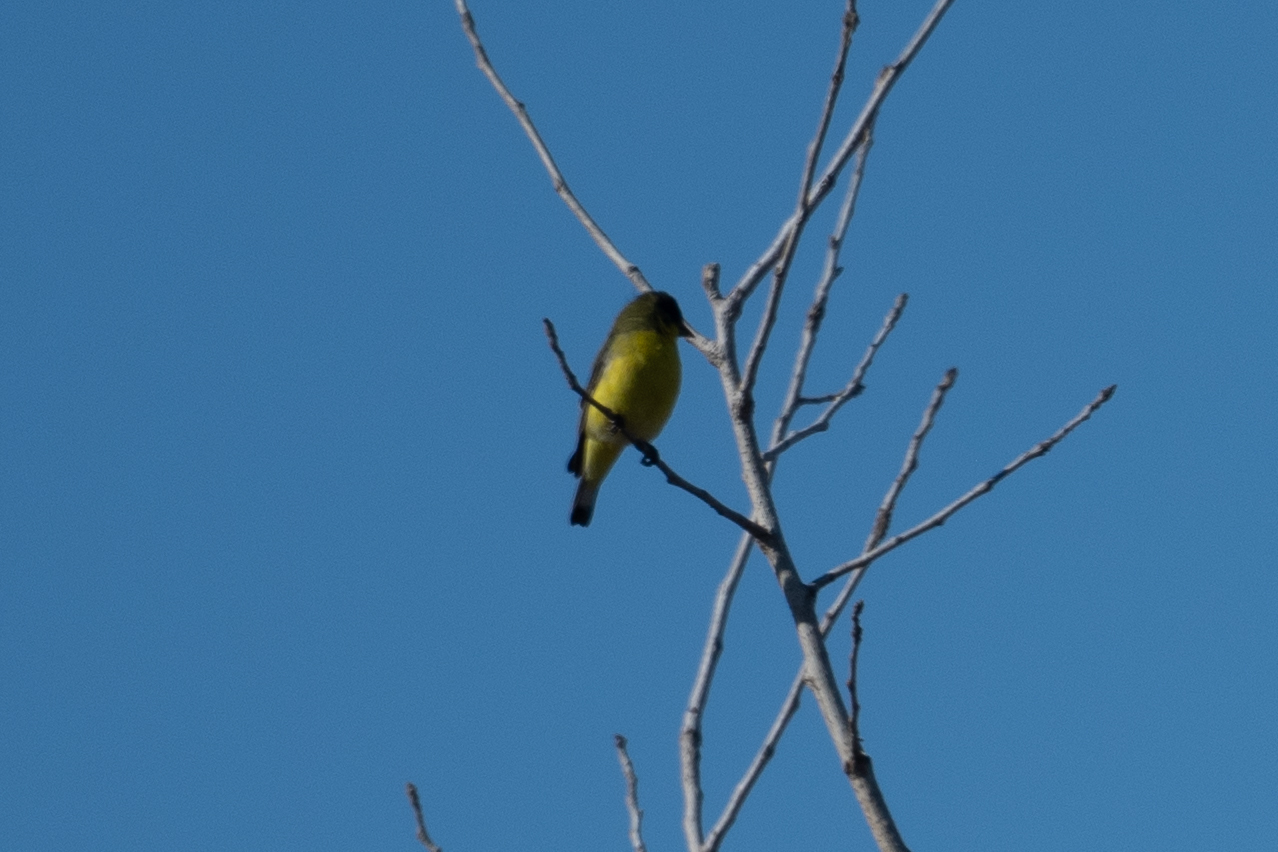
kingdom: Animalia
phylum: Chordata
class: Aves
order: Passeriformes
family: Fringillidae
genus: Spinus
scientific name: Spinus psaltria
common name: Lesser goldfinch
